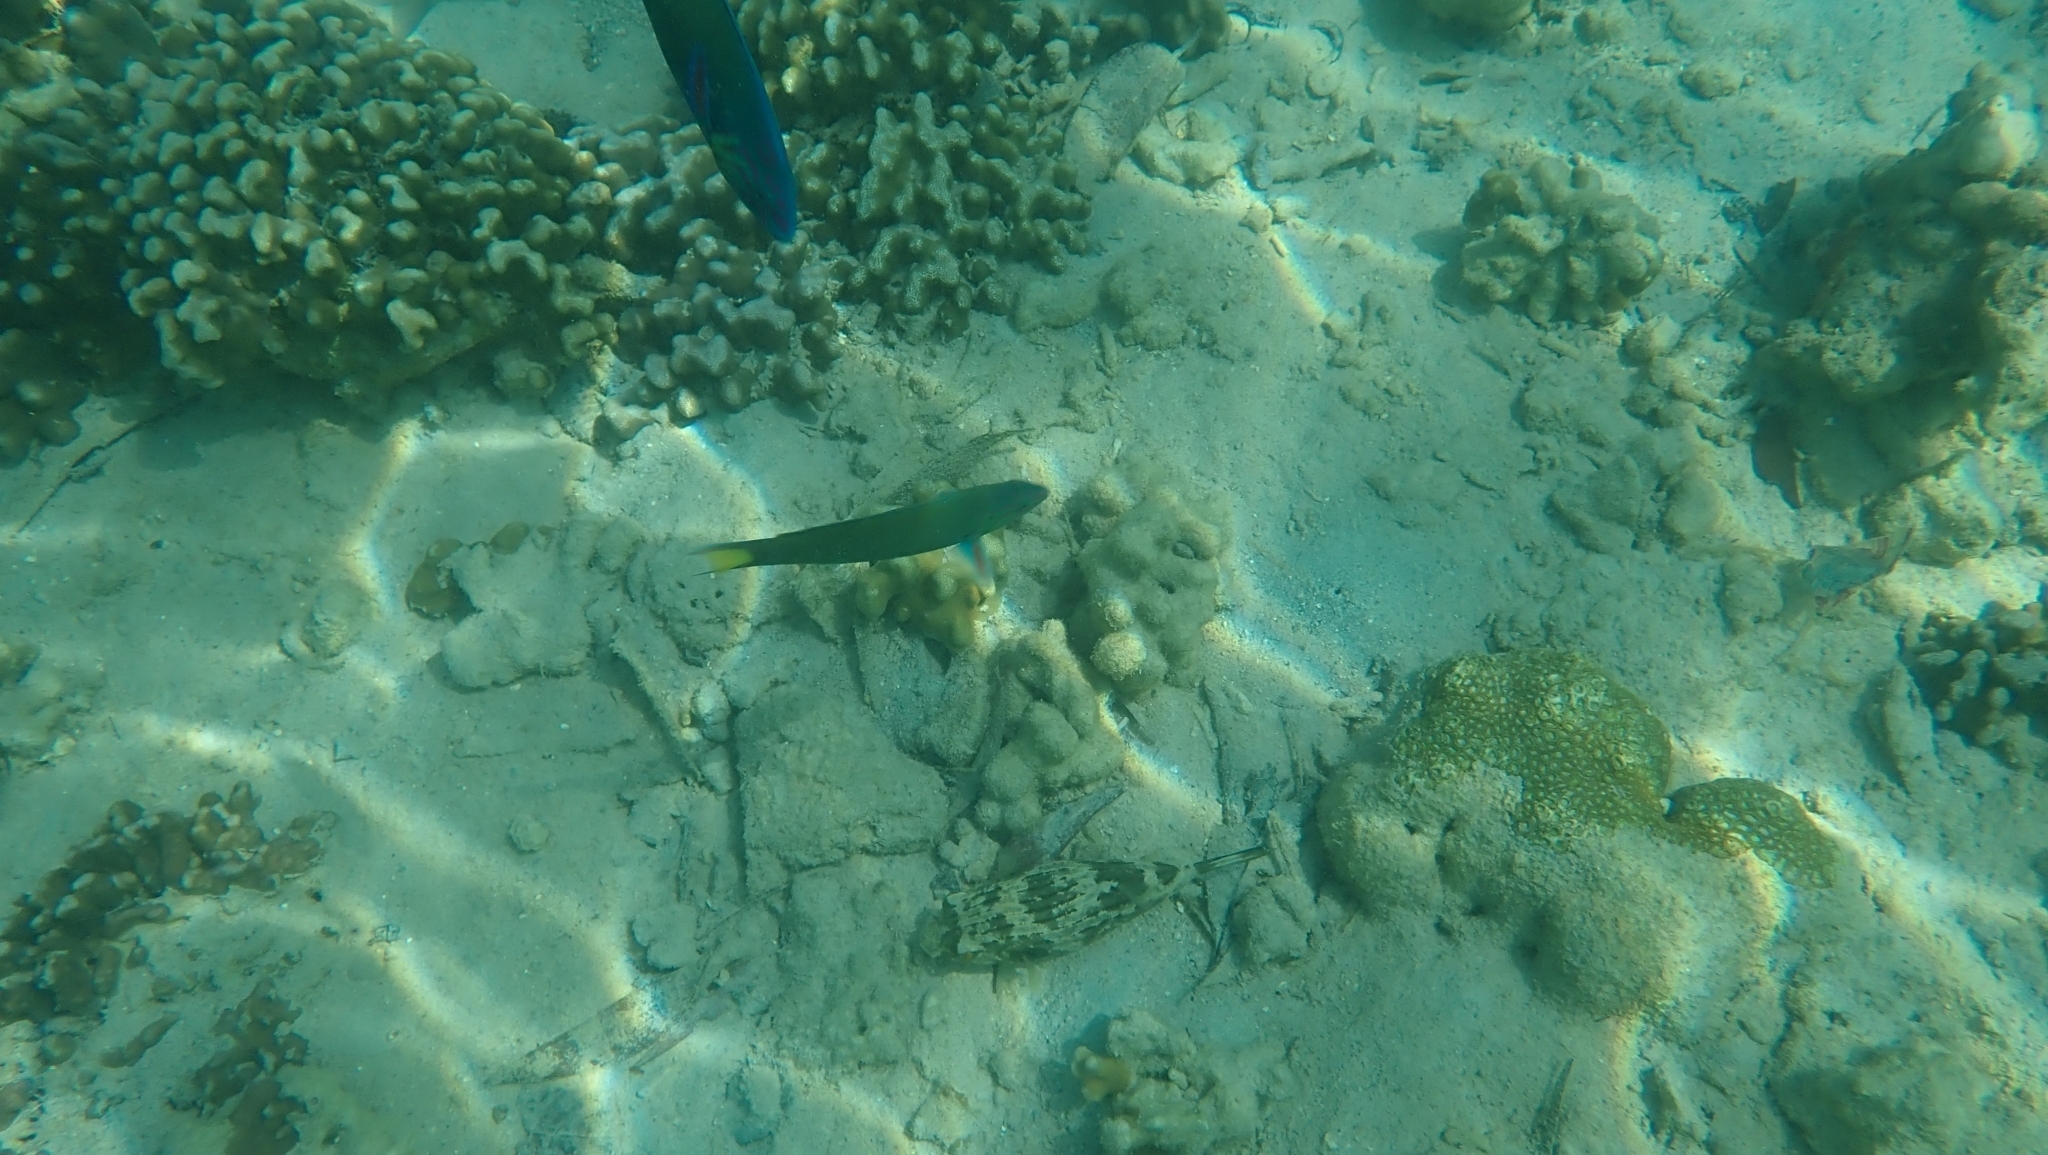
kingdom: Animalia
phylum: Chordata
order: Tetraodontiformes
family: Tetraodontidae
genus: Arothron
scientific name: Arothron manilensis
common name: Narrow-lined puffer
